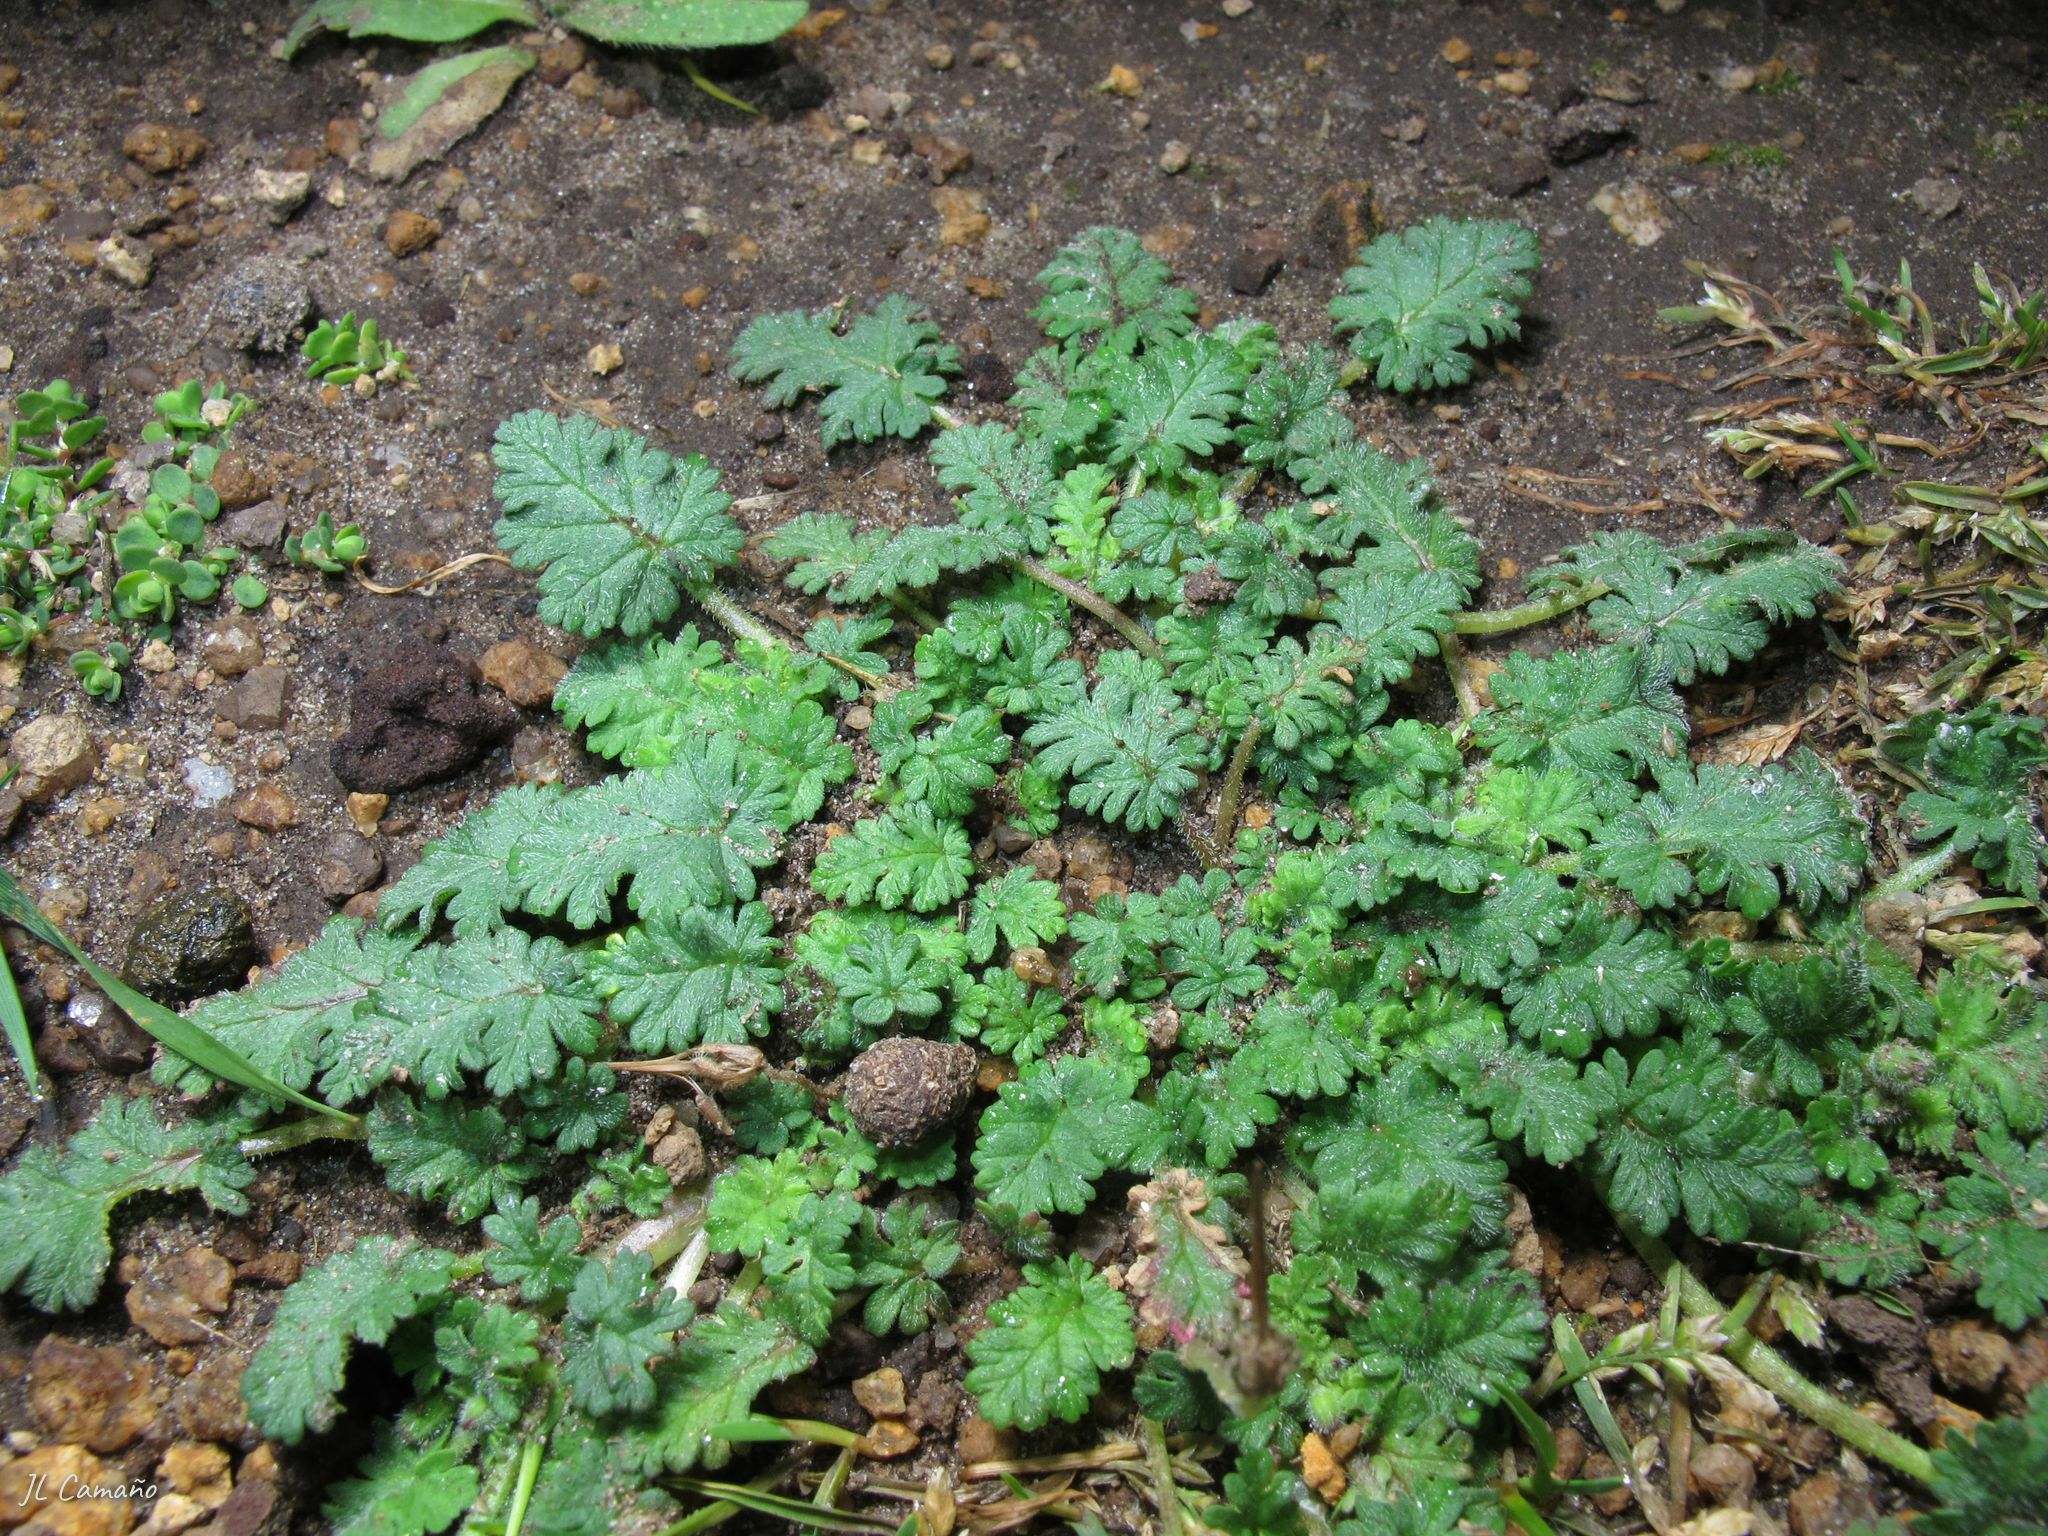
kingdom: Plantae
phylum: Tracheophyta
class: Magnoliopsida
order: Geraniales
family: Geraniaceae
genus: Erodium
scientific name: Erodium maritimum
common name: Sea stork's-bill
